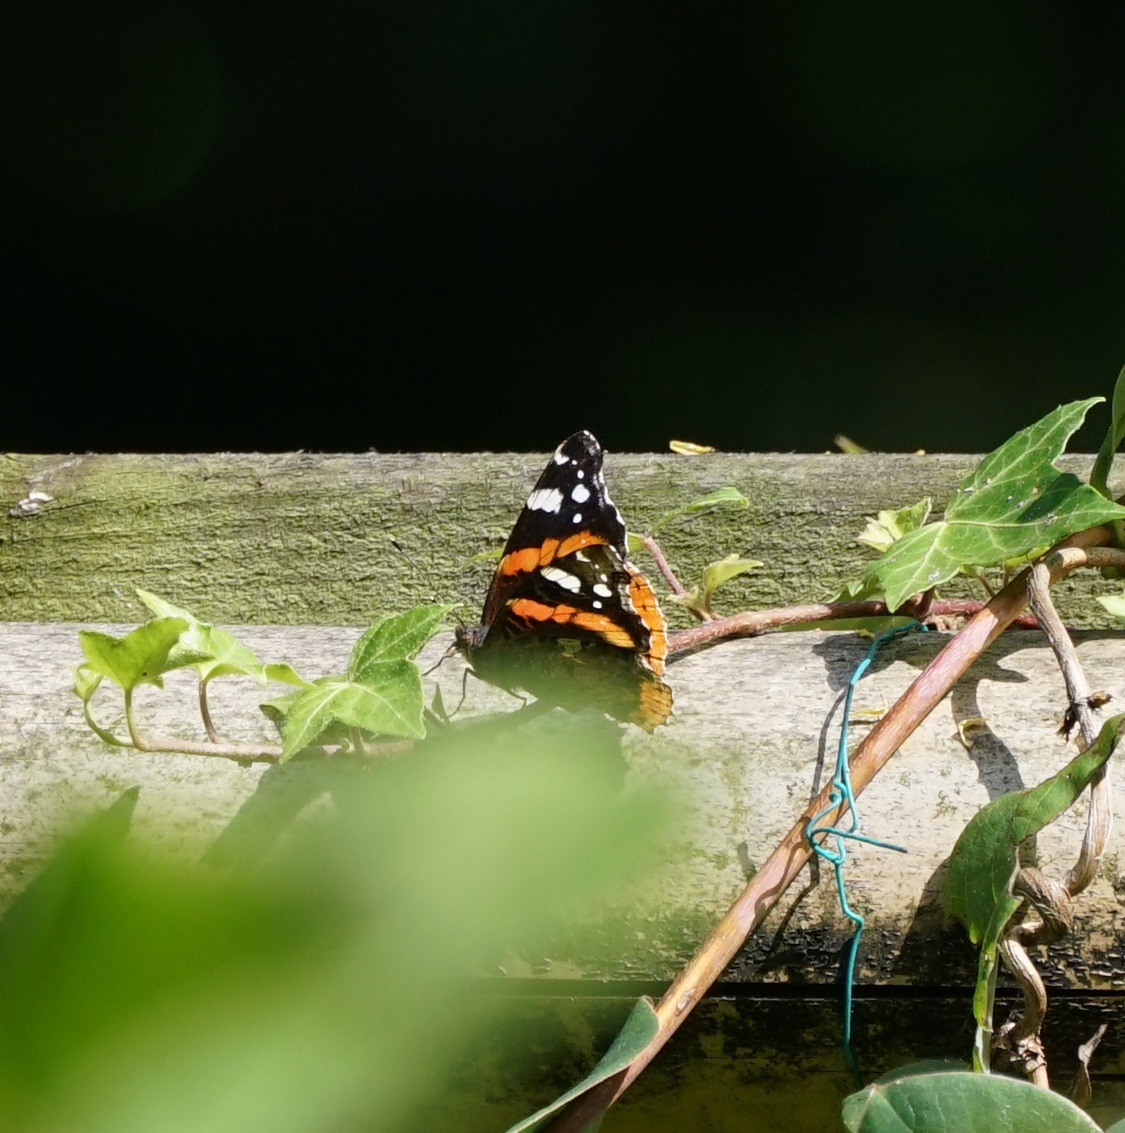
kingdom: Animalia
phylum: Arthropoda
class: Insecta
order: Lepidoptera
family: Nymphalidae
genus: Vanessa
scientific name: Vanessa atalanta
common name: Red admiral
